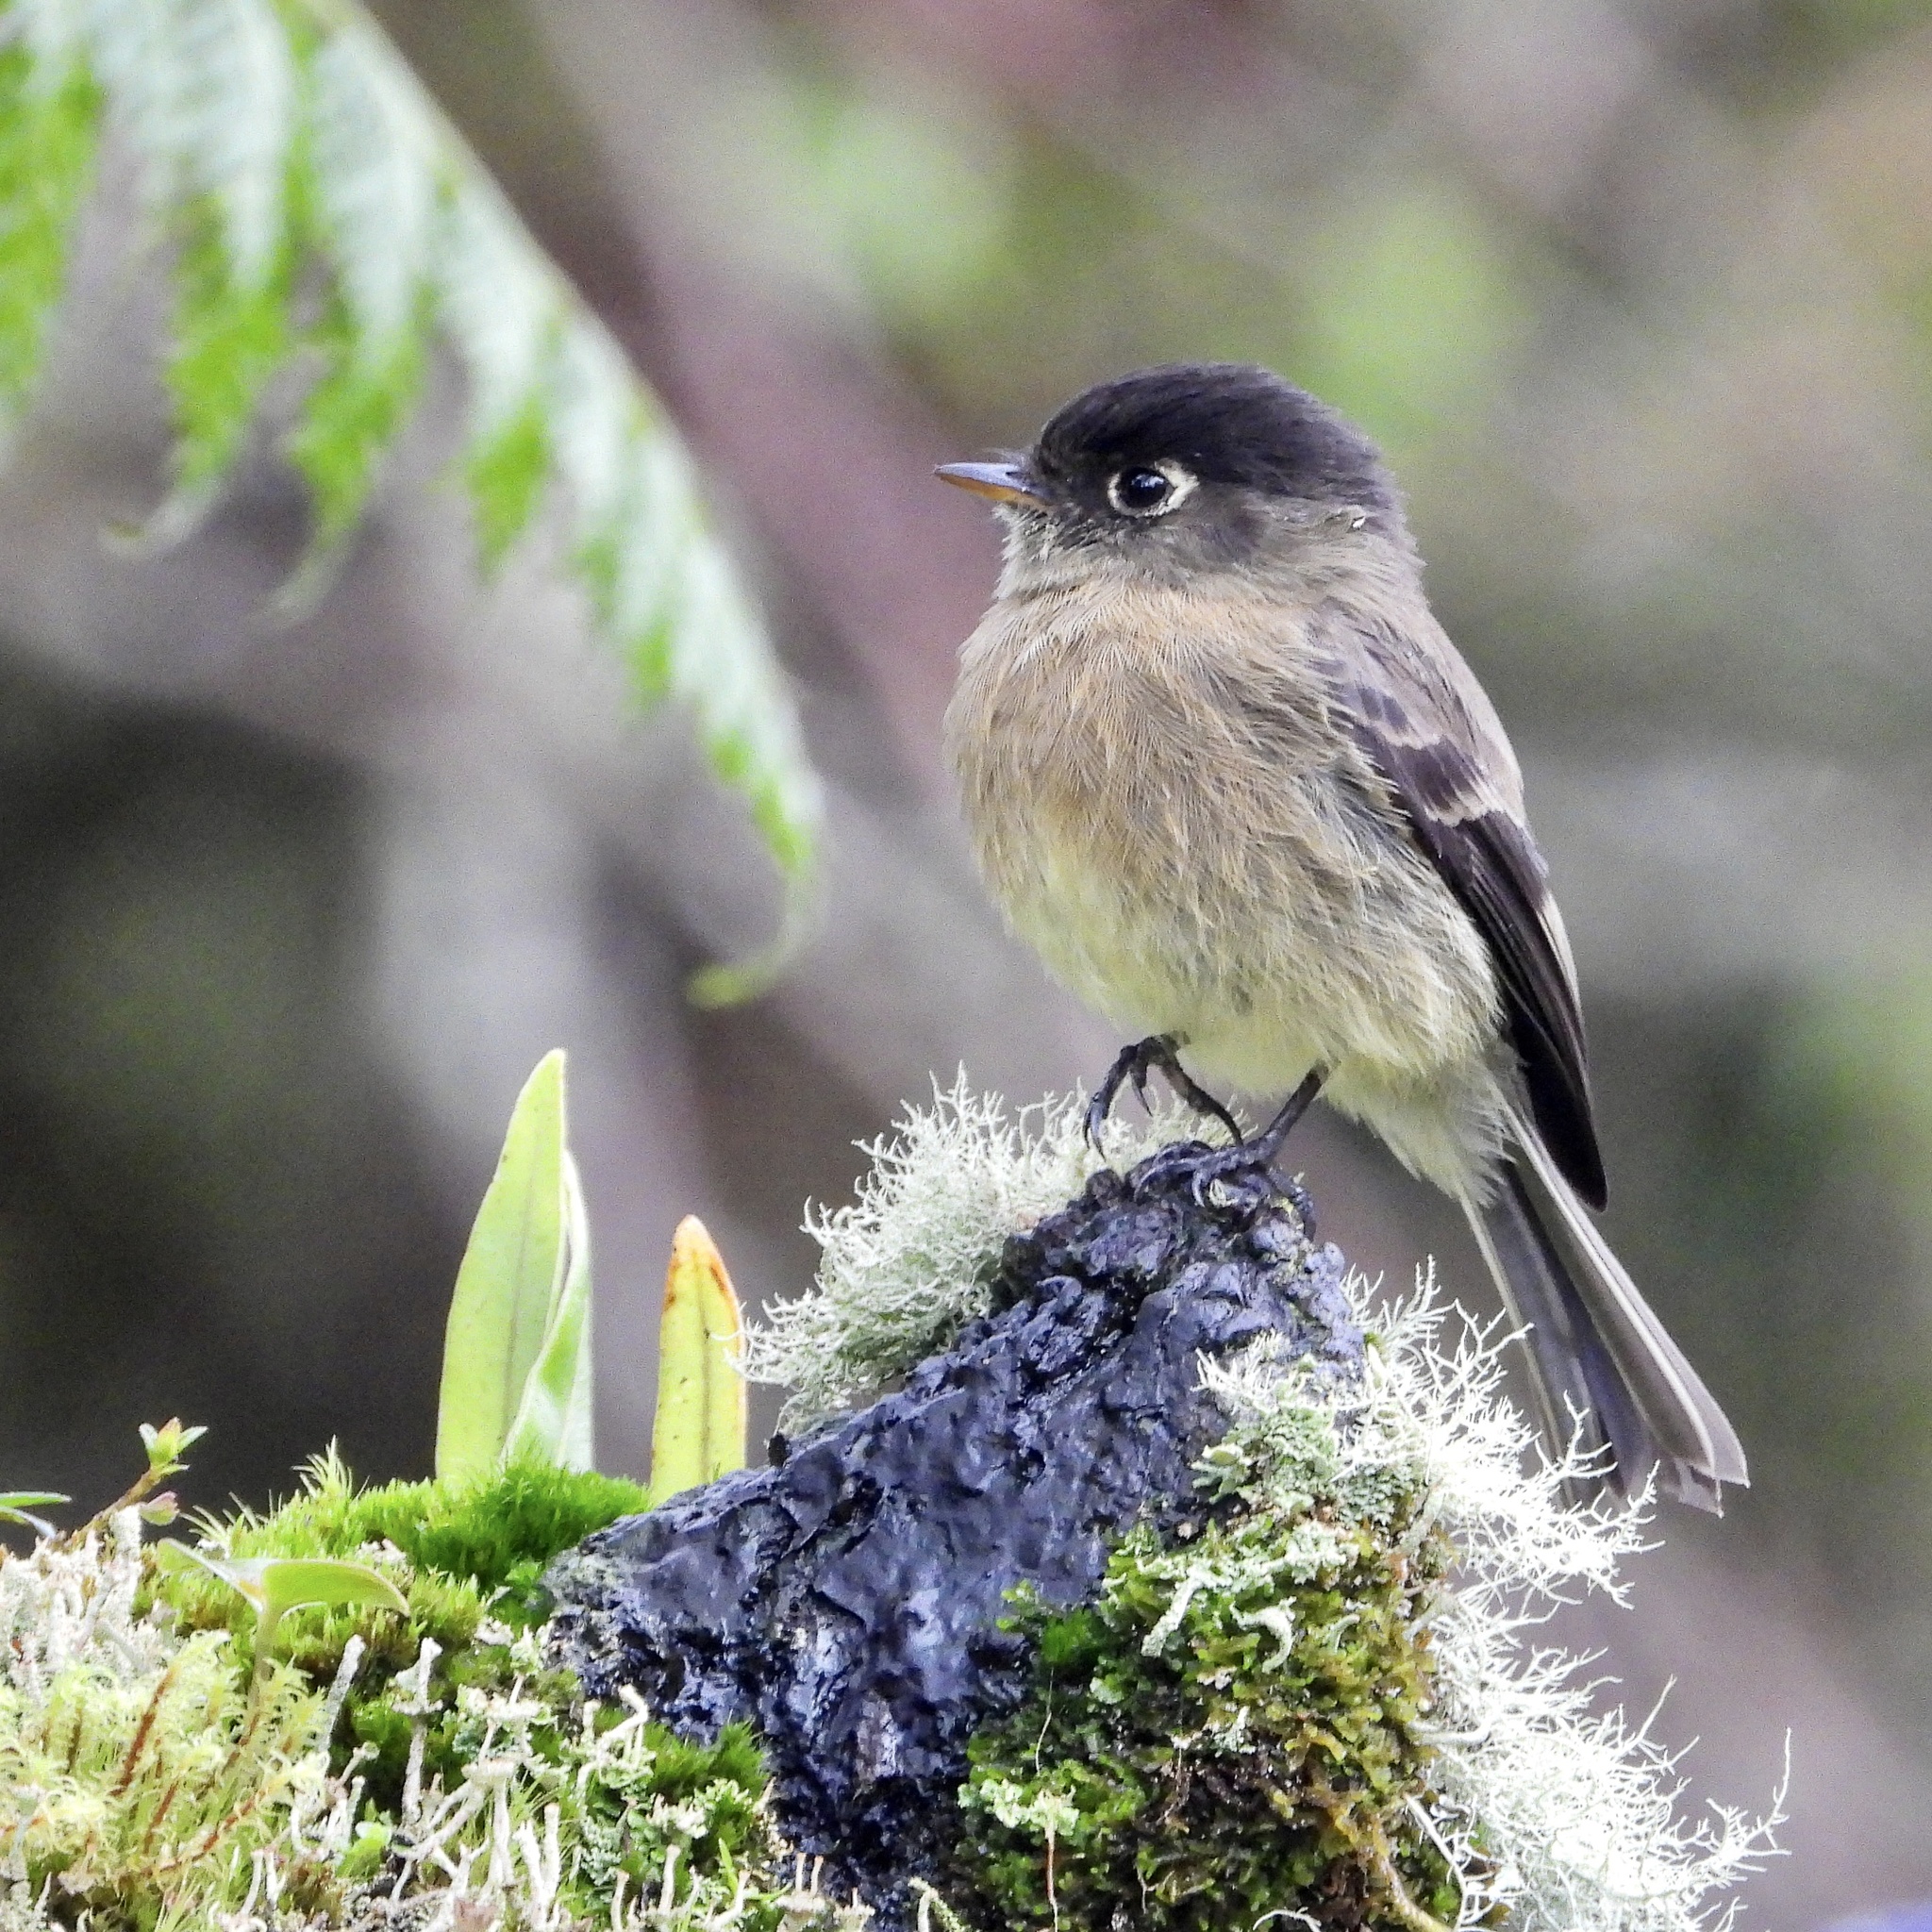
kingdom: Animalia
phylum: Chordata
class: Aves
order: Passeriformes
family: Tyrannidae
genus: Empidonax
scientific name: Empidonax atriceps
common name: Black-capped flycatcher
